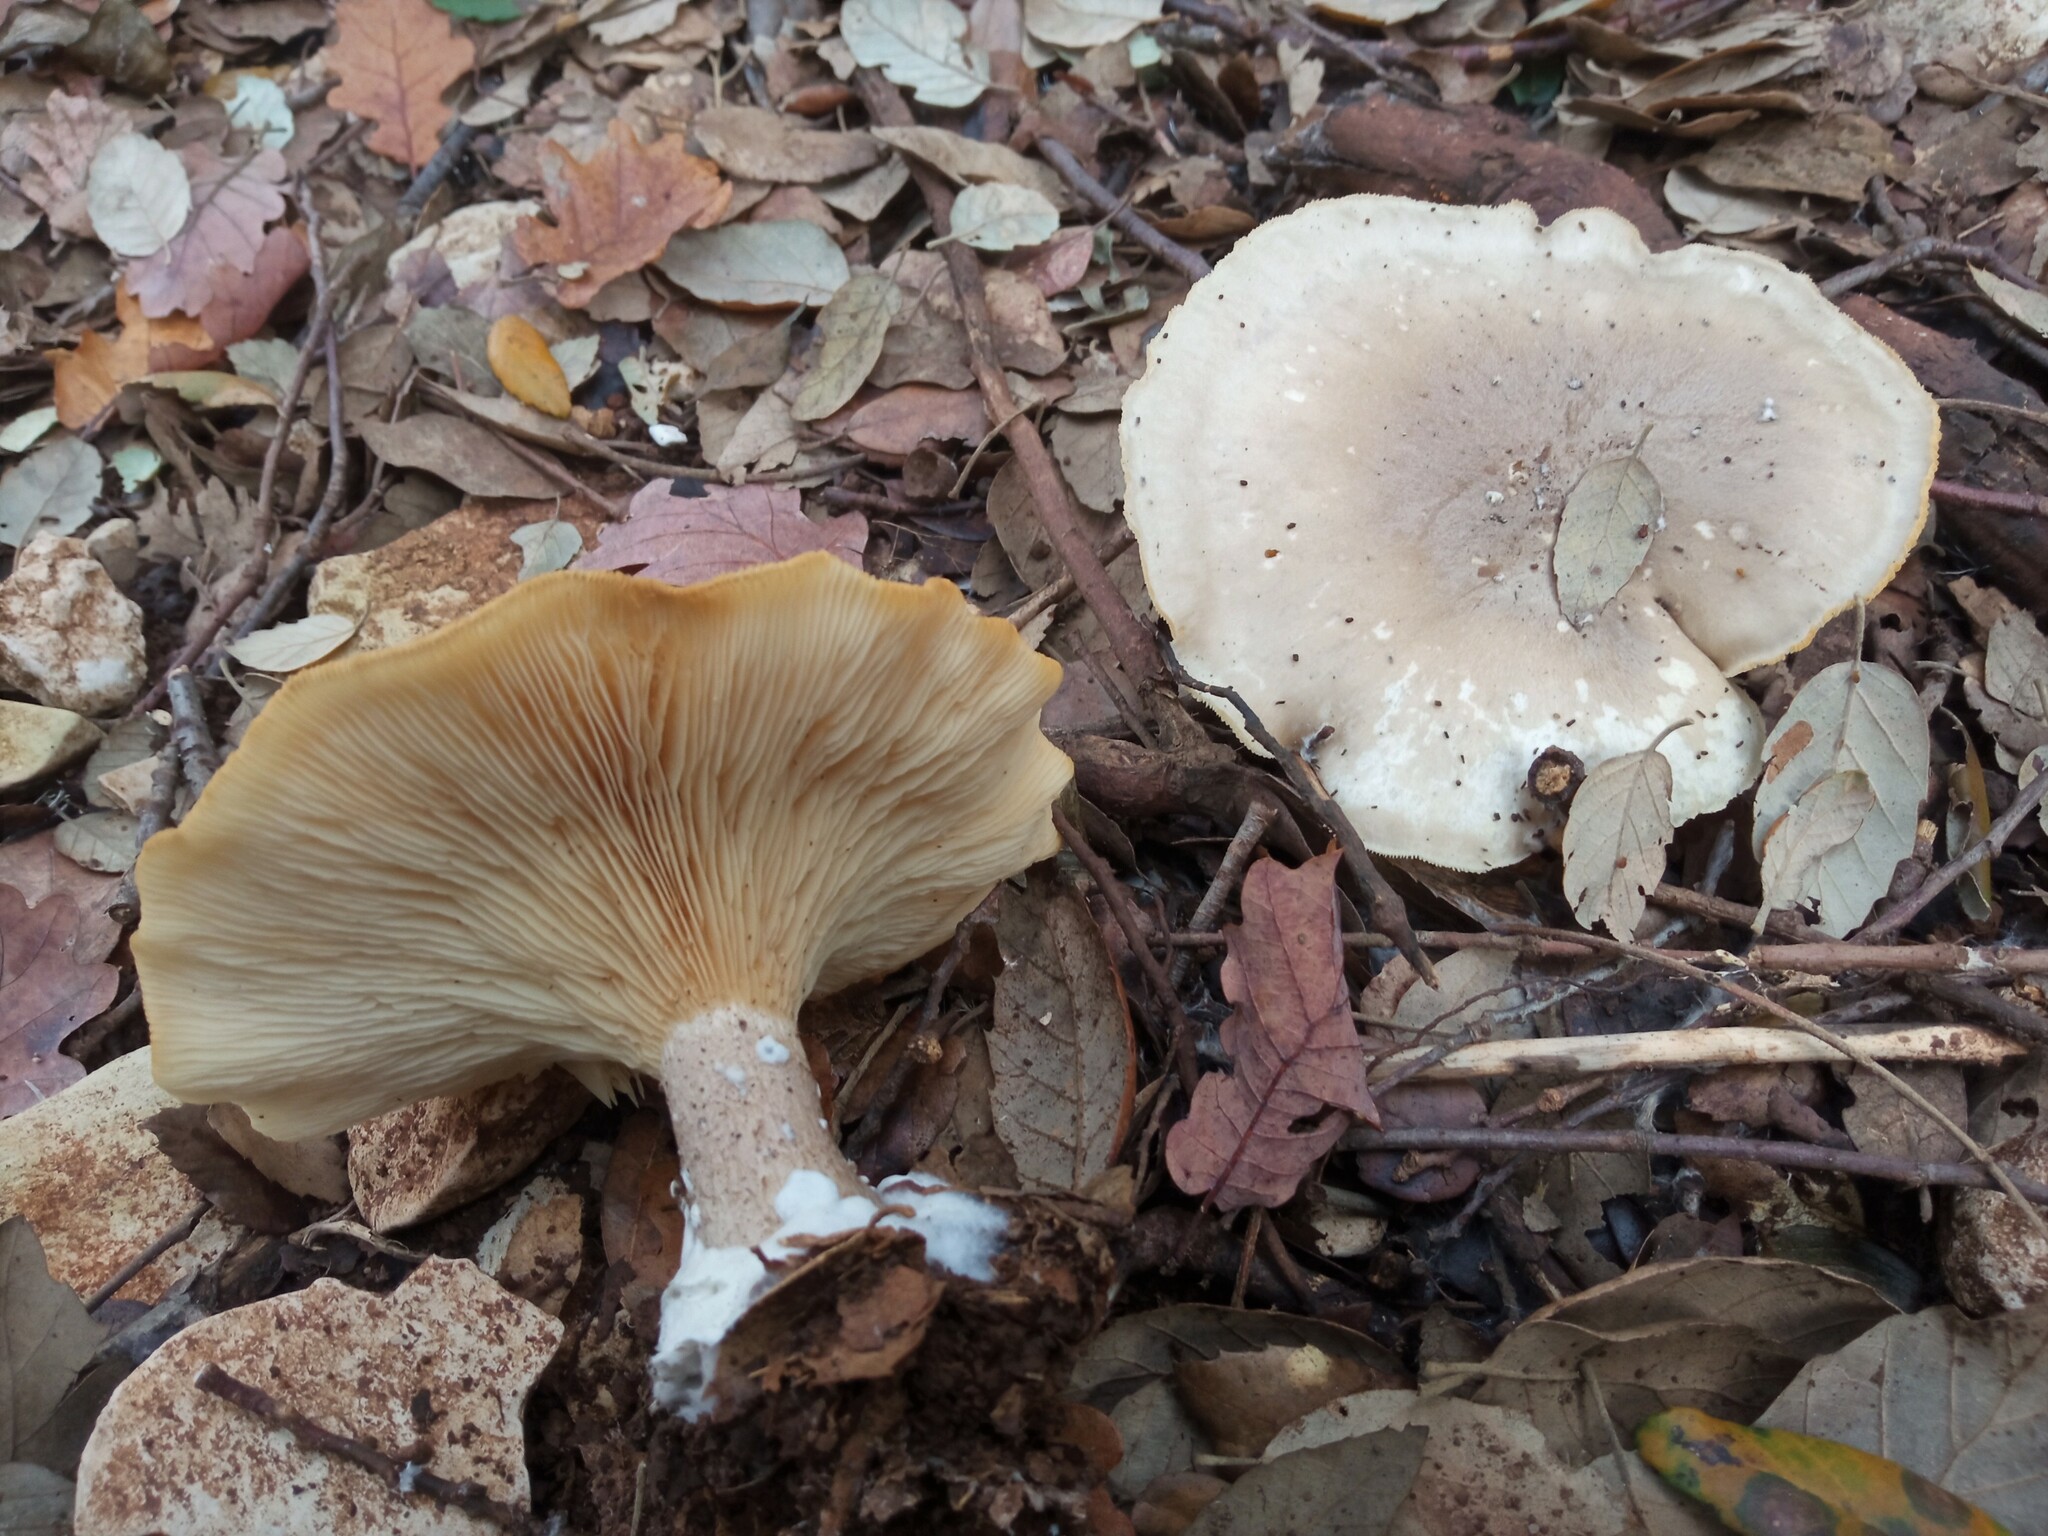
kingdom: Fungi
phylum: Basidiomycota
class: Agaricomycetes
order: Agaricales
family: Tricholomataceae
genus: Clitocybe
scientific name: Clitocybe nebularis
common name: Clouded agaric
